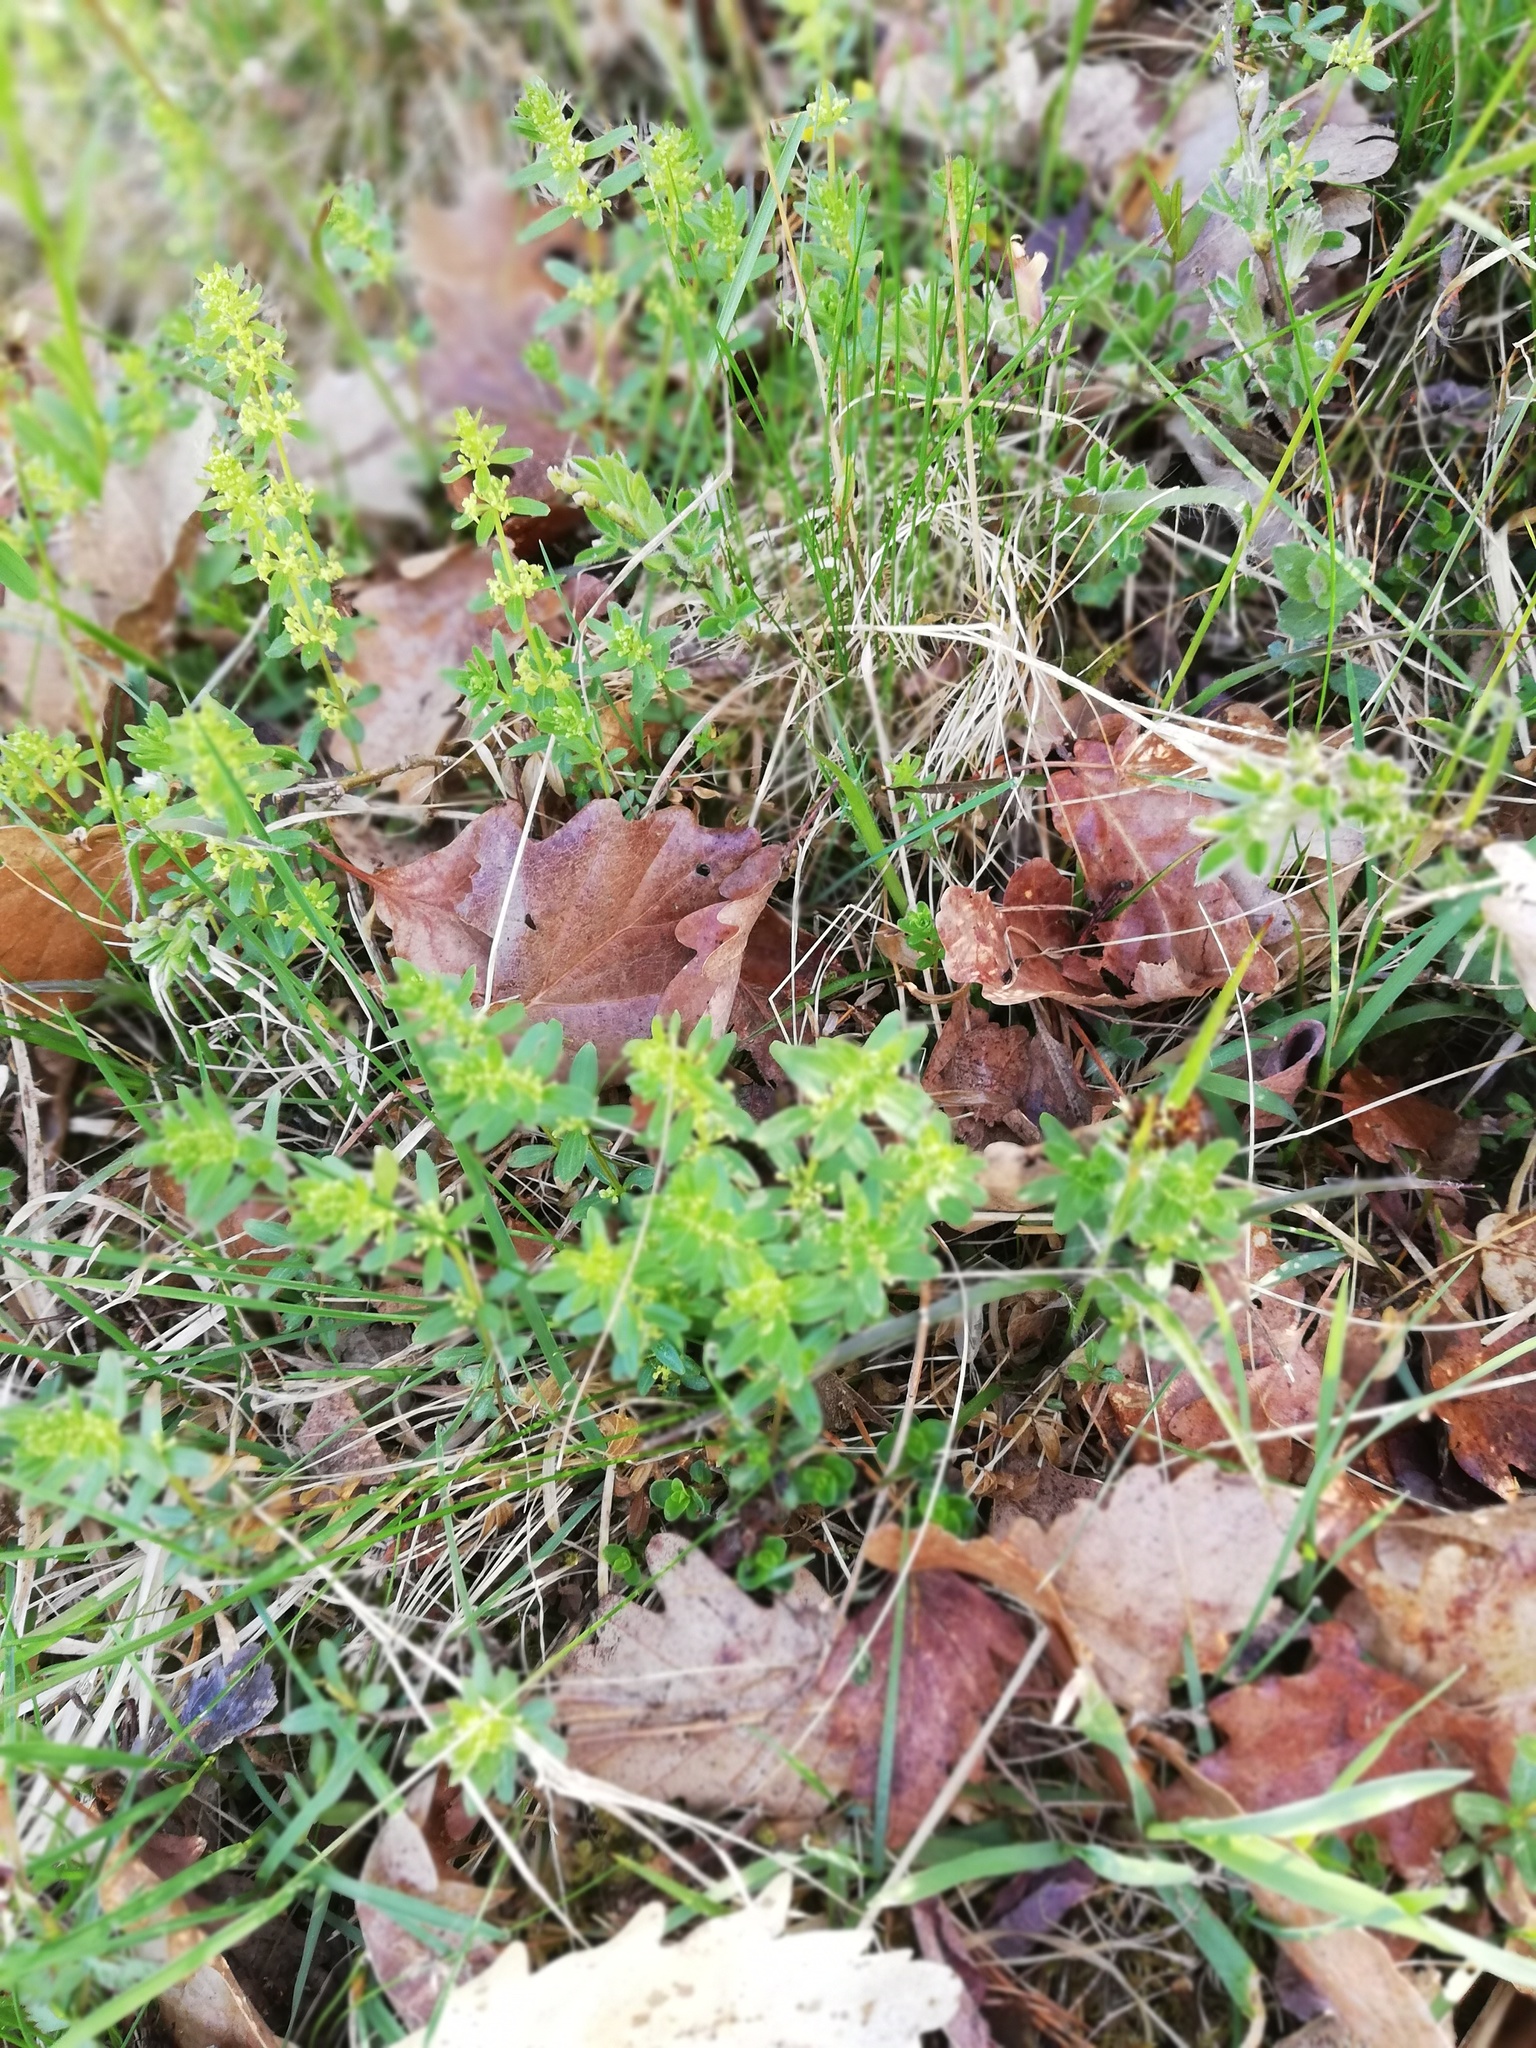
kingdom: Plantae
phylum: Tracheophyta
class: Magnoliopsida
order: Gentianales
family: Rubiaceae
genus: Cruciata
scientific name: Cruciata glabra
